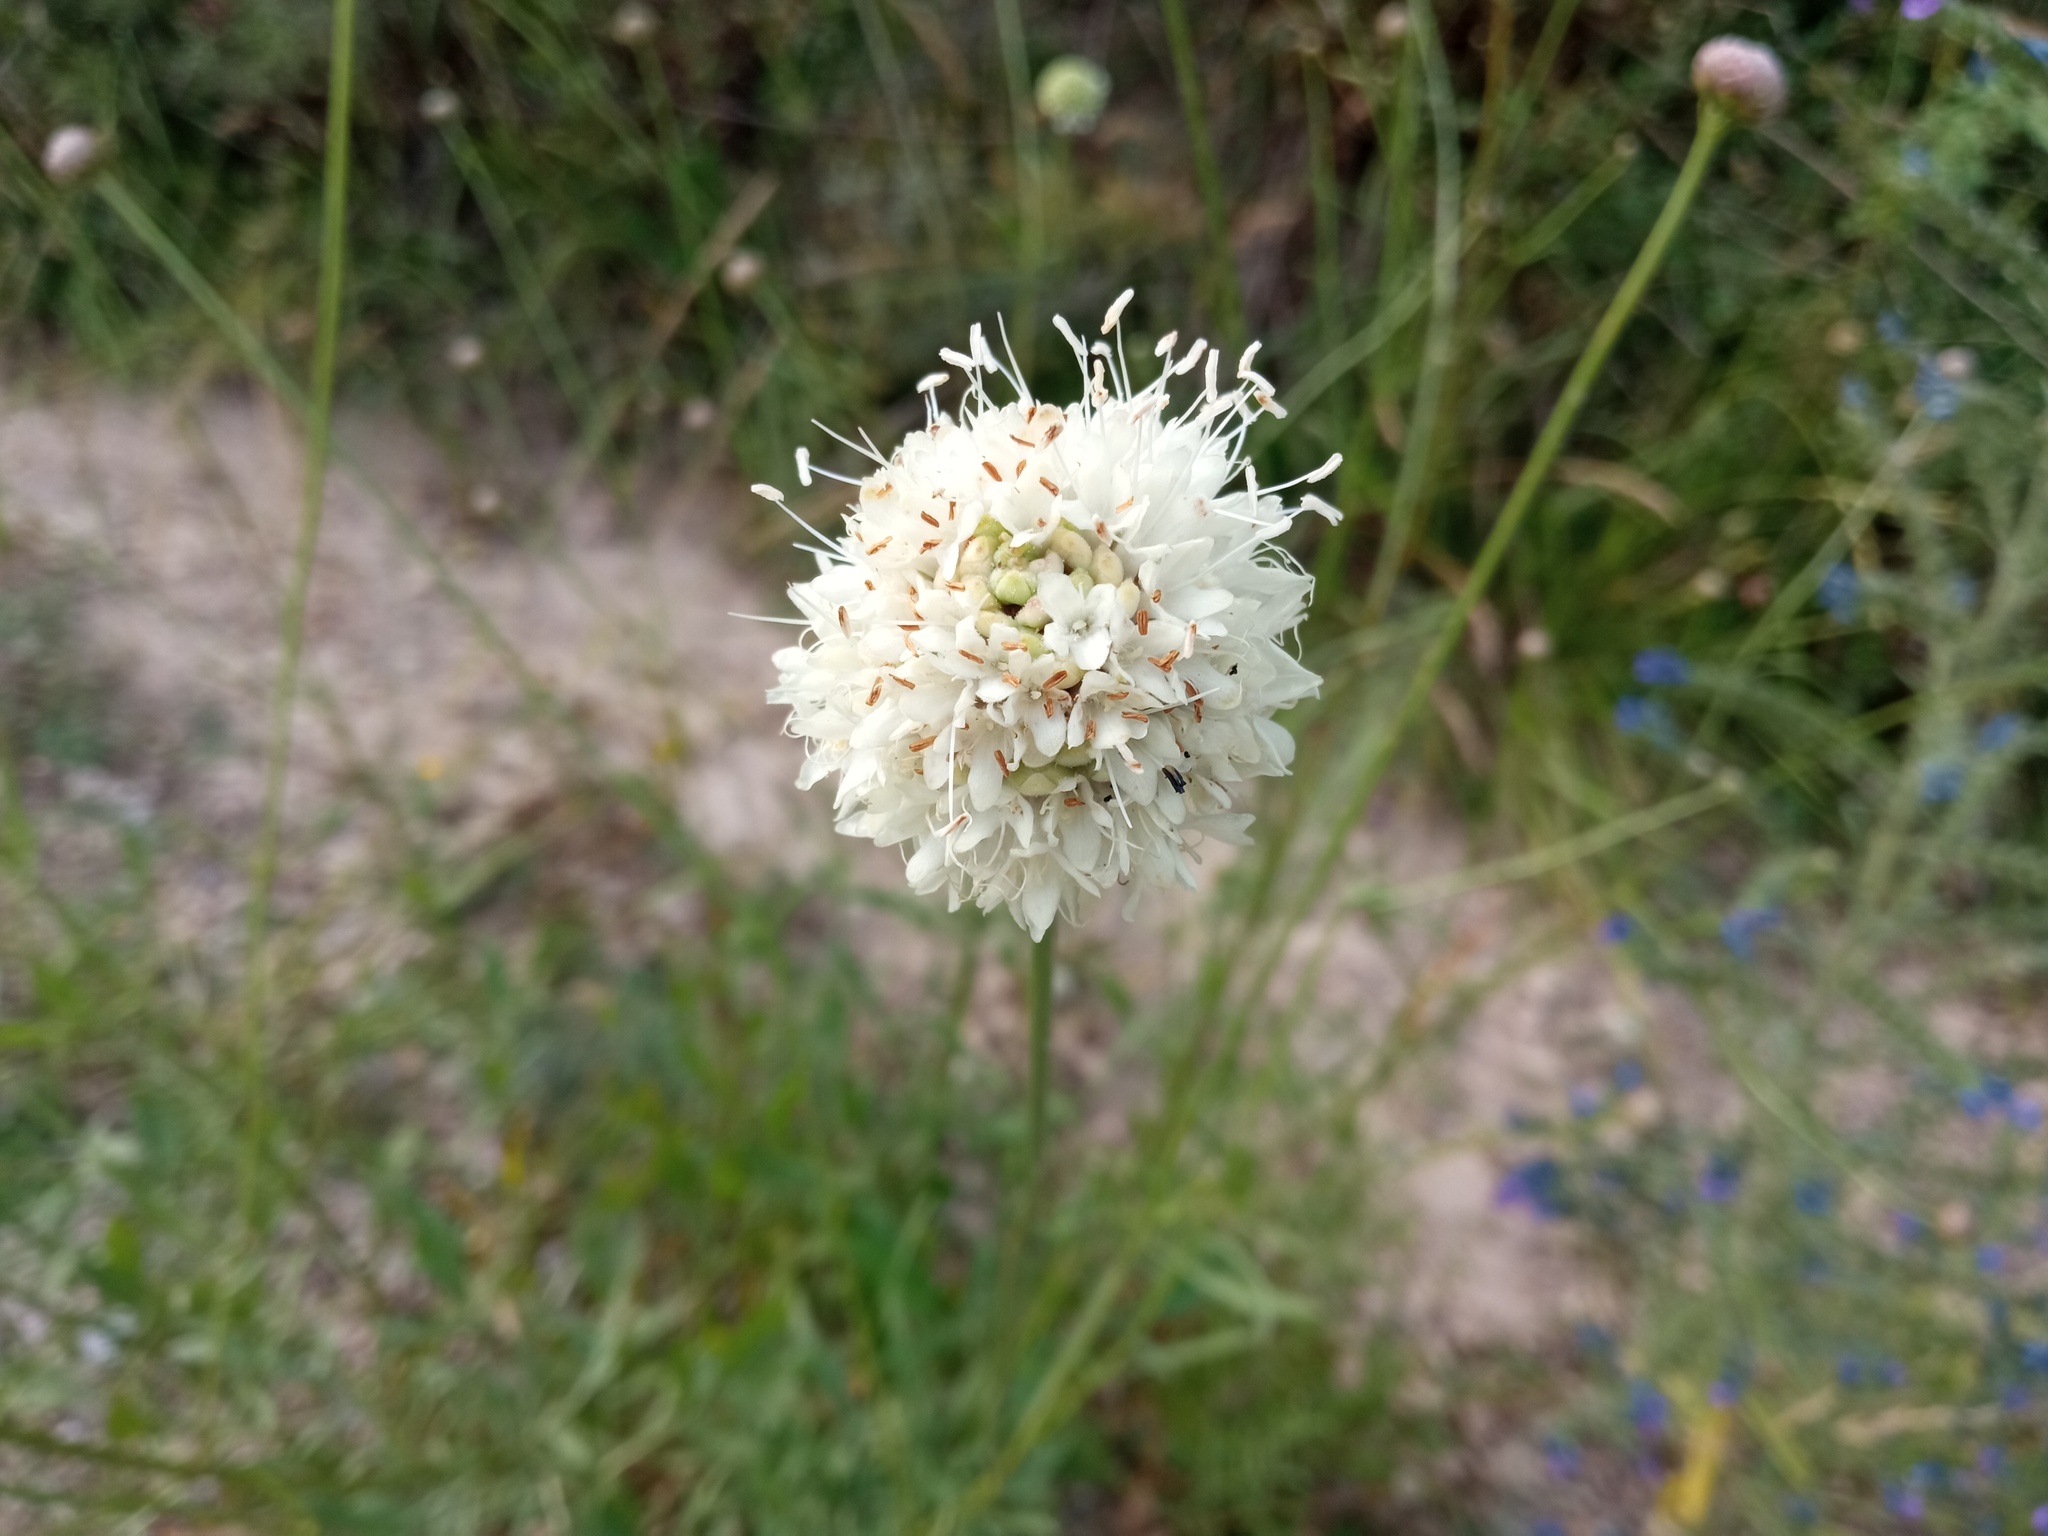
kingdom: Plantae
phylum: Tracheophyta
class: Magnoliopsida
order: Dipsacales
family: Caprifoliaceae
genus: Cephalaria
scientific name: Cephalaria leucantha
